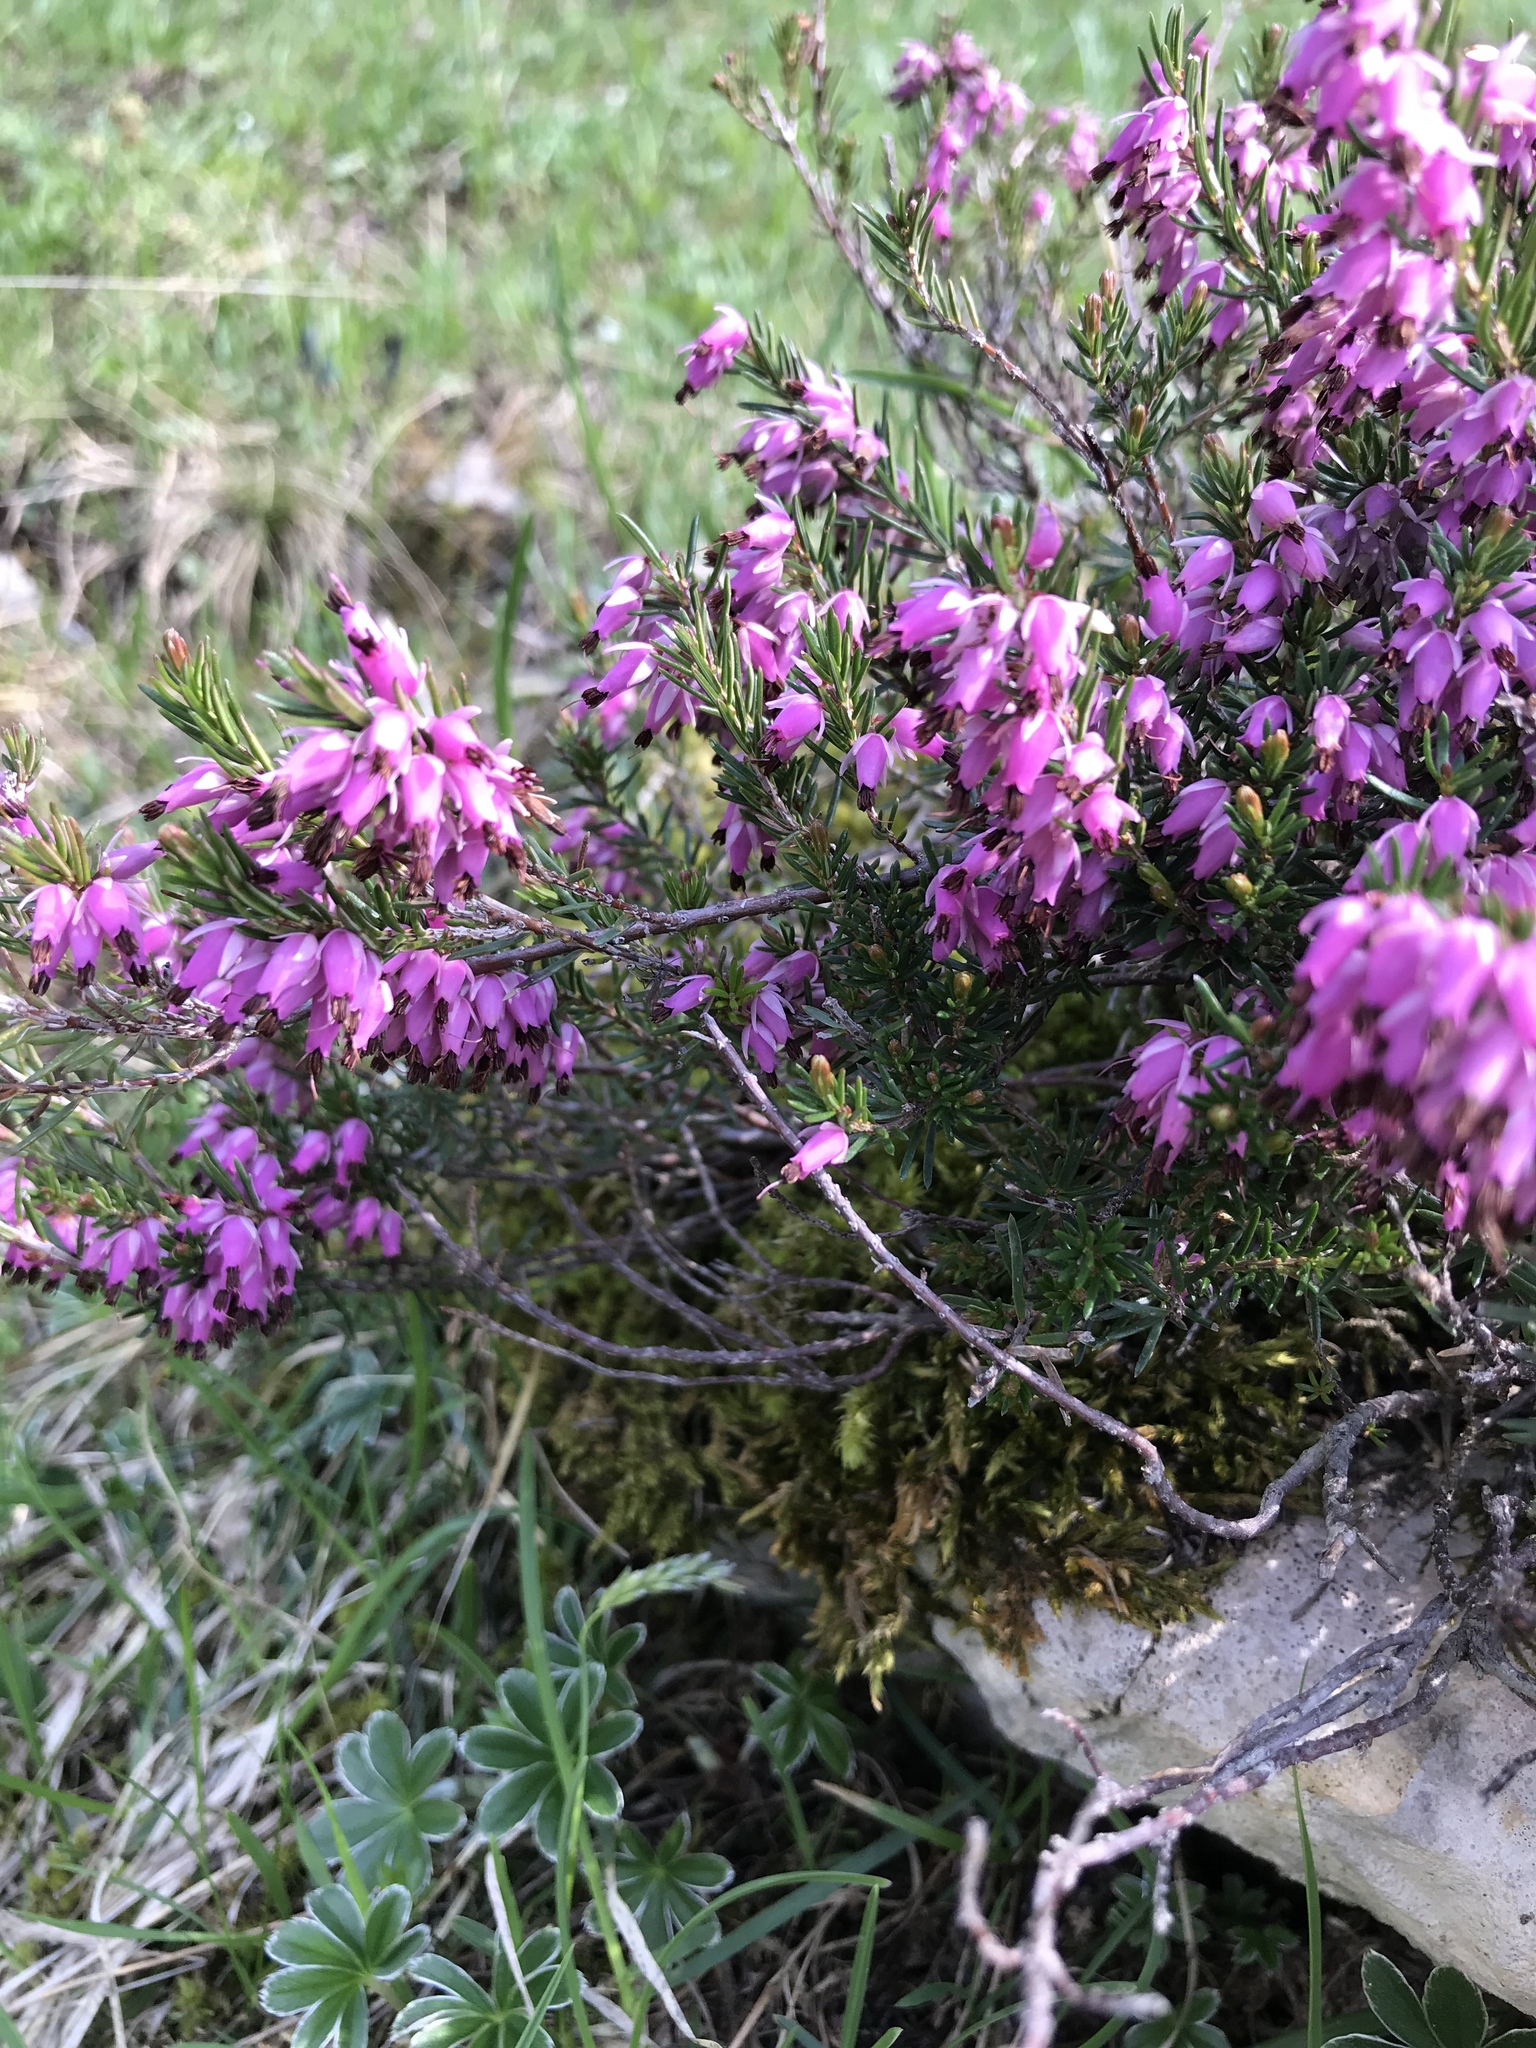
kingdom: Plantae
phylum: Tracheophyta
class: Magnoliopsida
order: Ericales
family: Ericaceae
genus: Erica
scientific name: Erica carnea
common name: Winter heath
